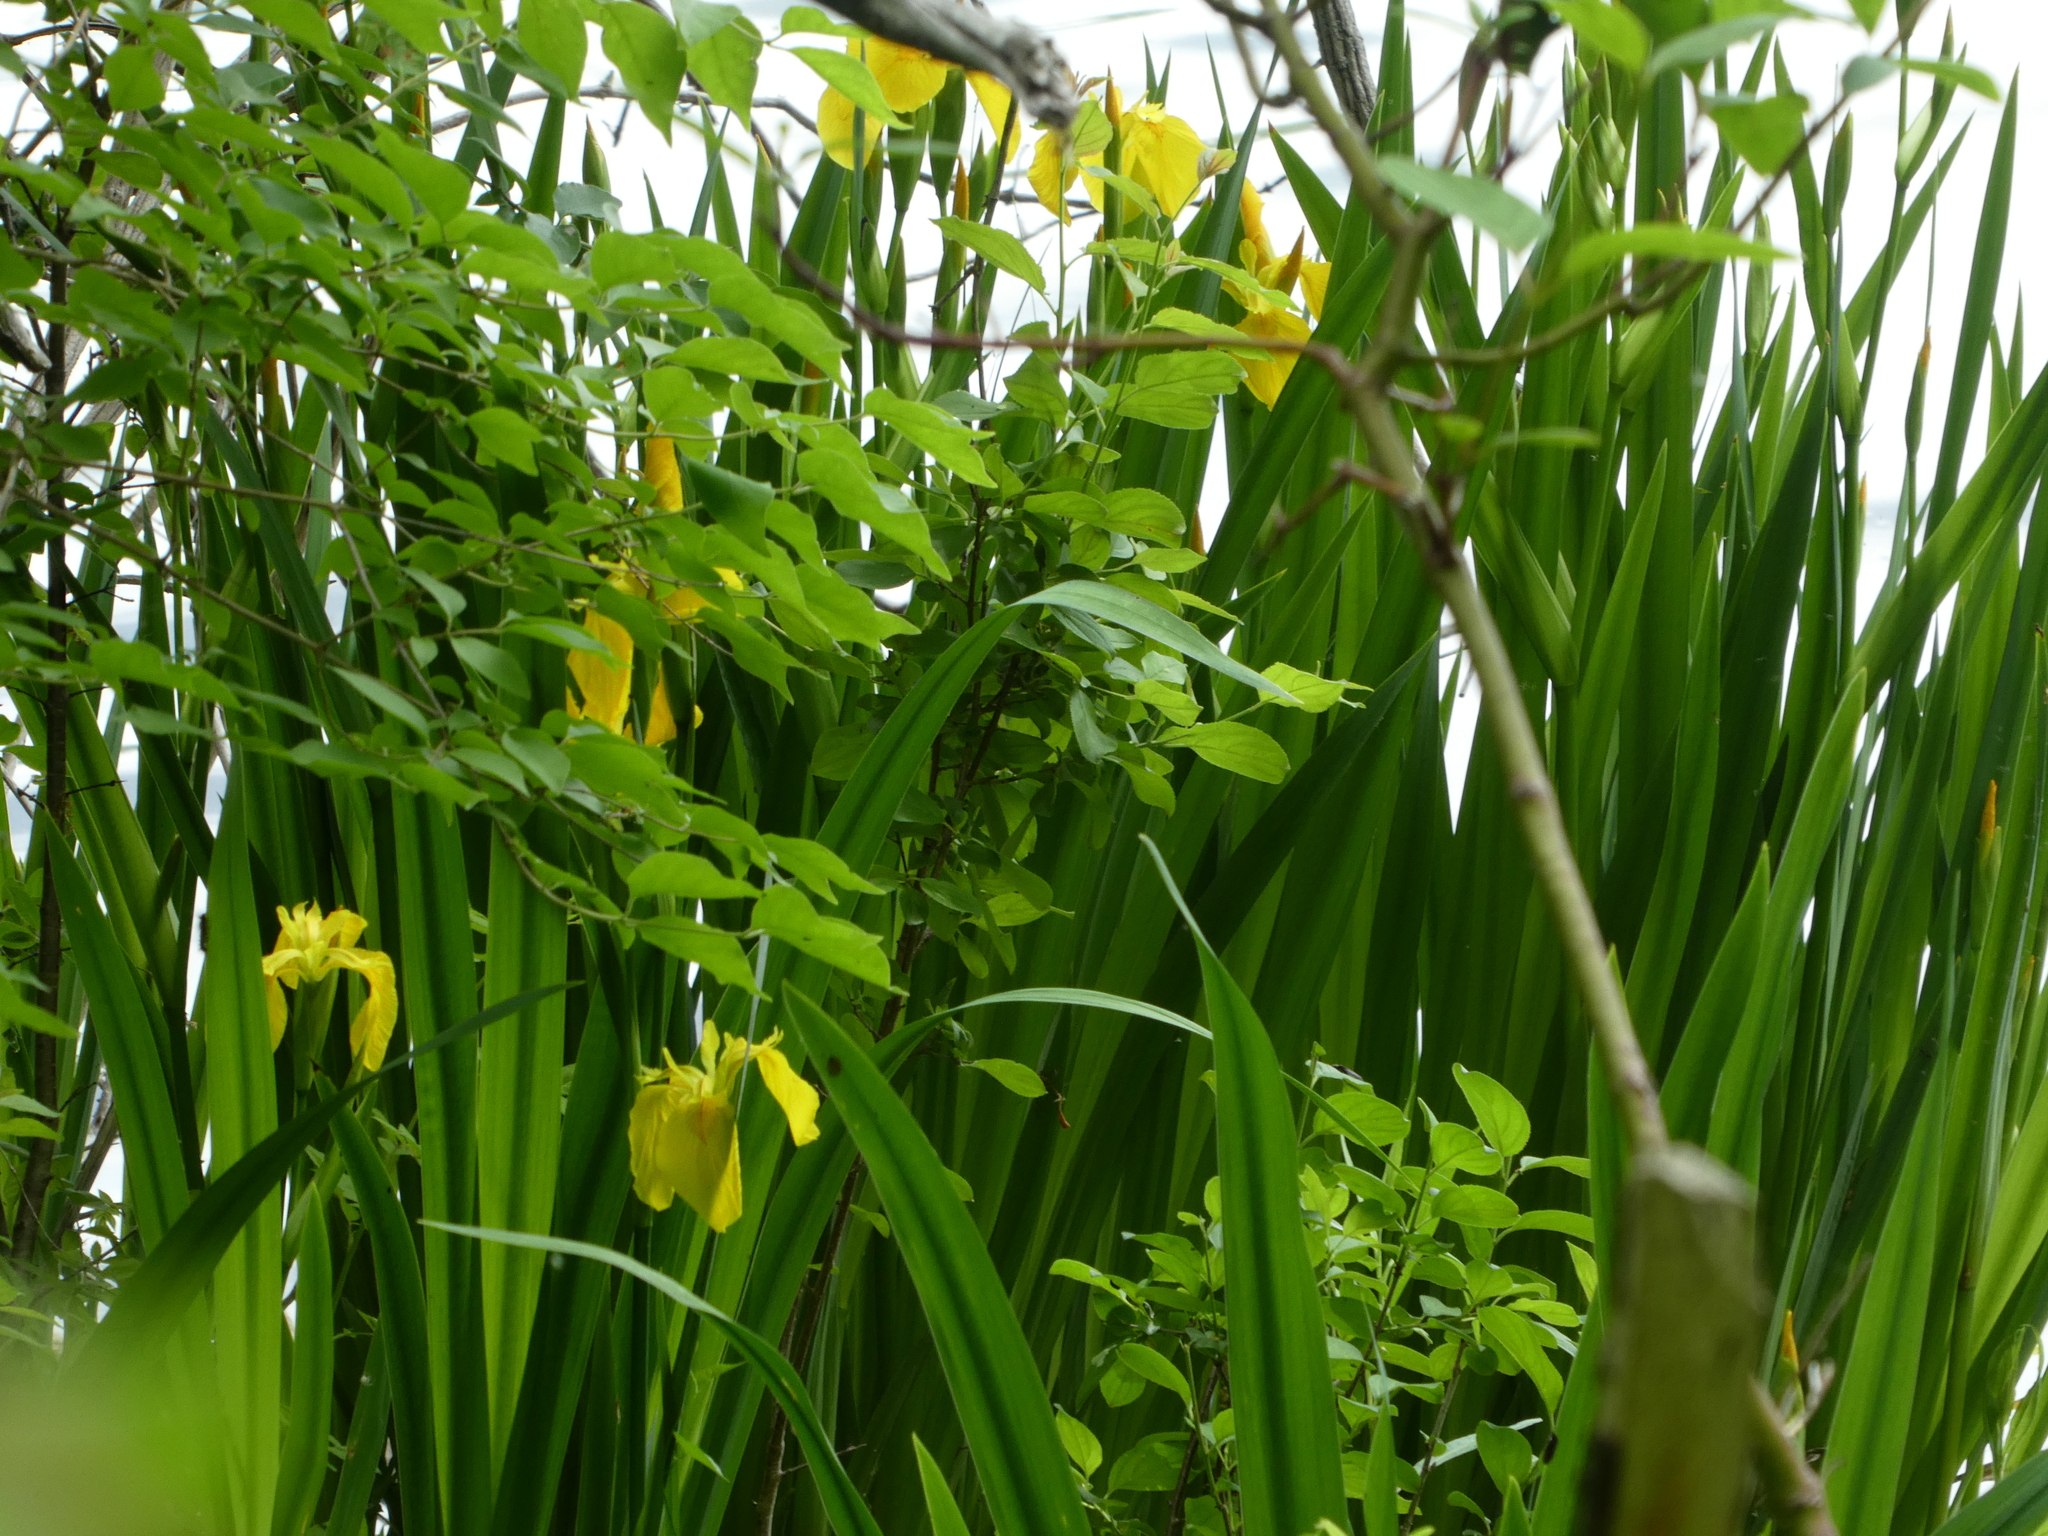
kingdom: Plantae
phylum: Tracheophyta
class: Liliopsida
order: Asparagales
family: Iridaceae
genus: Iris
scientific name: Iris pseudacorus
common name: Yellow flag
